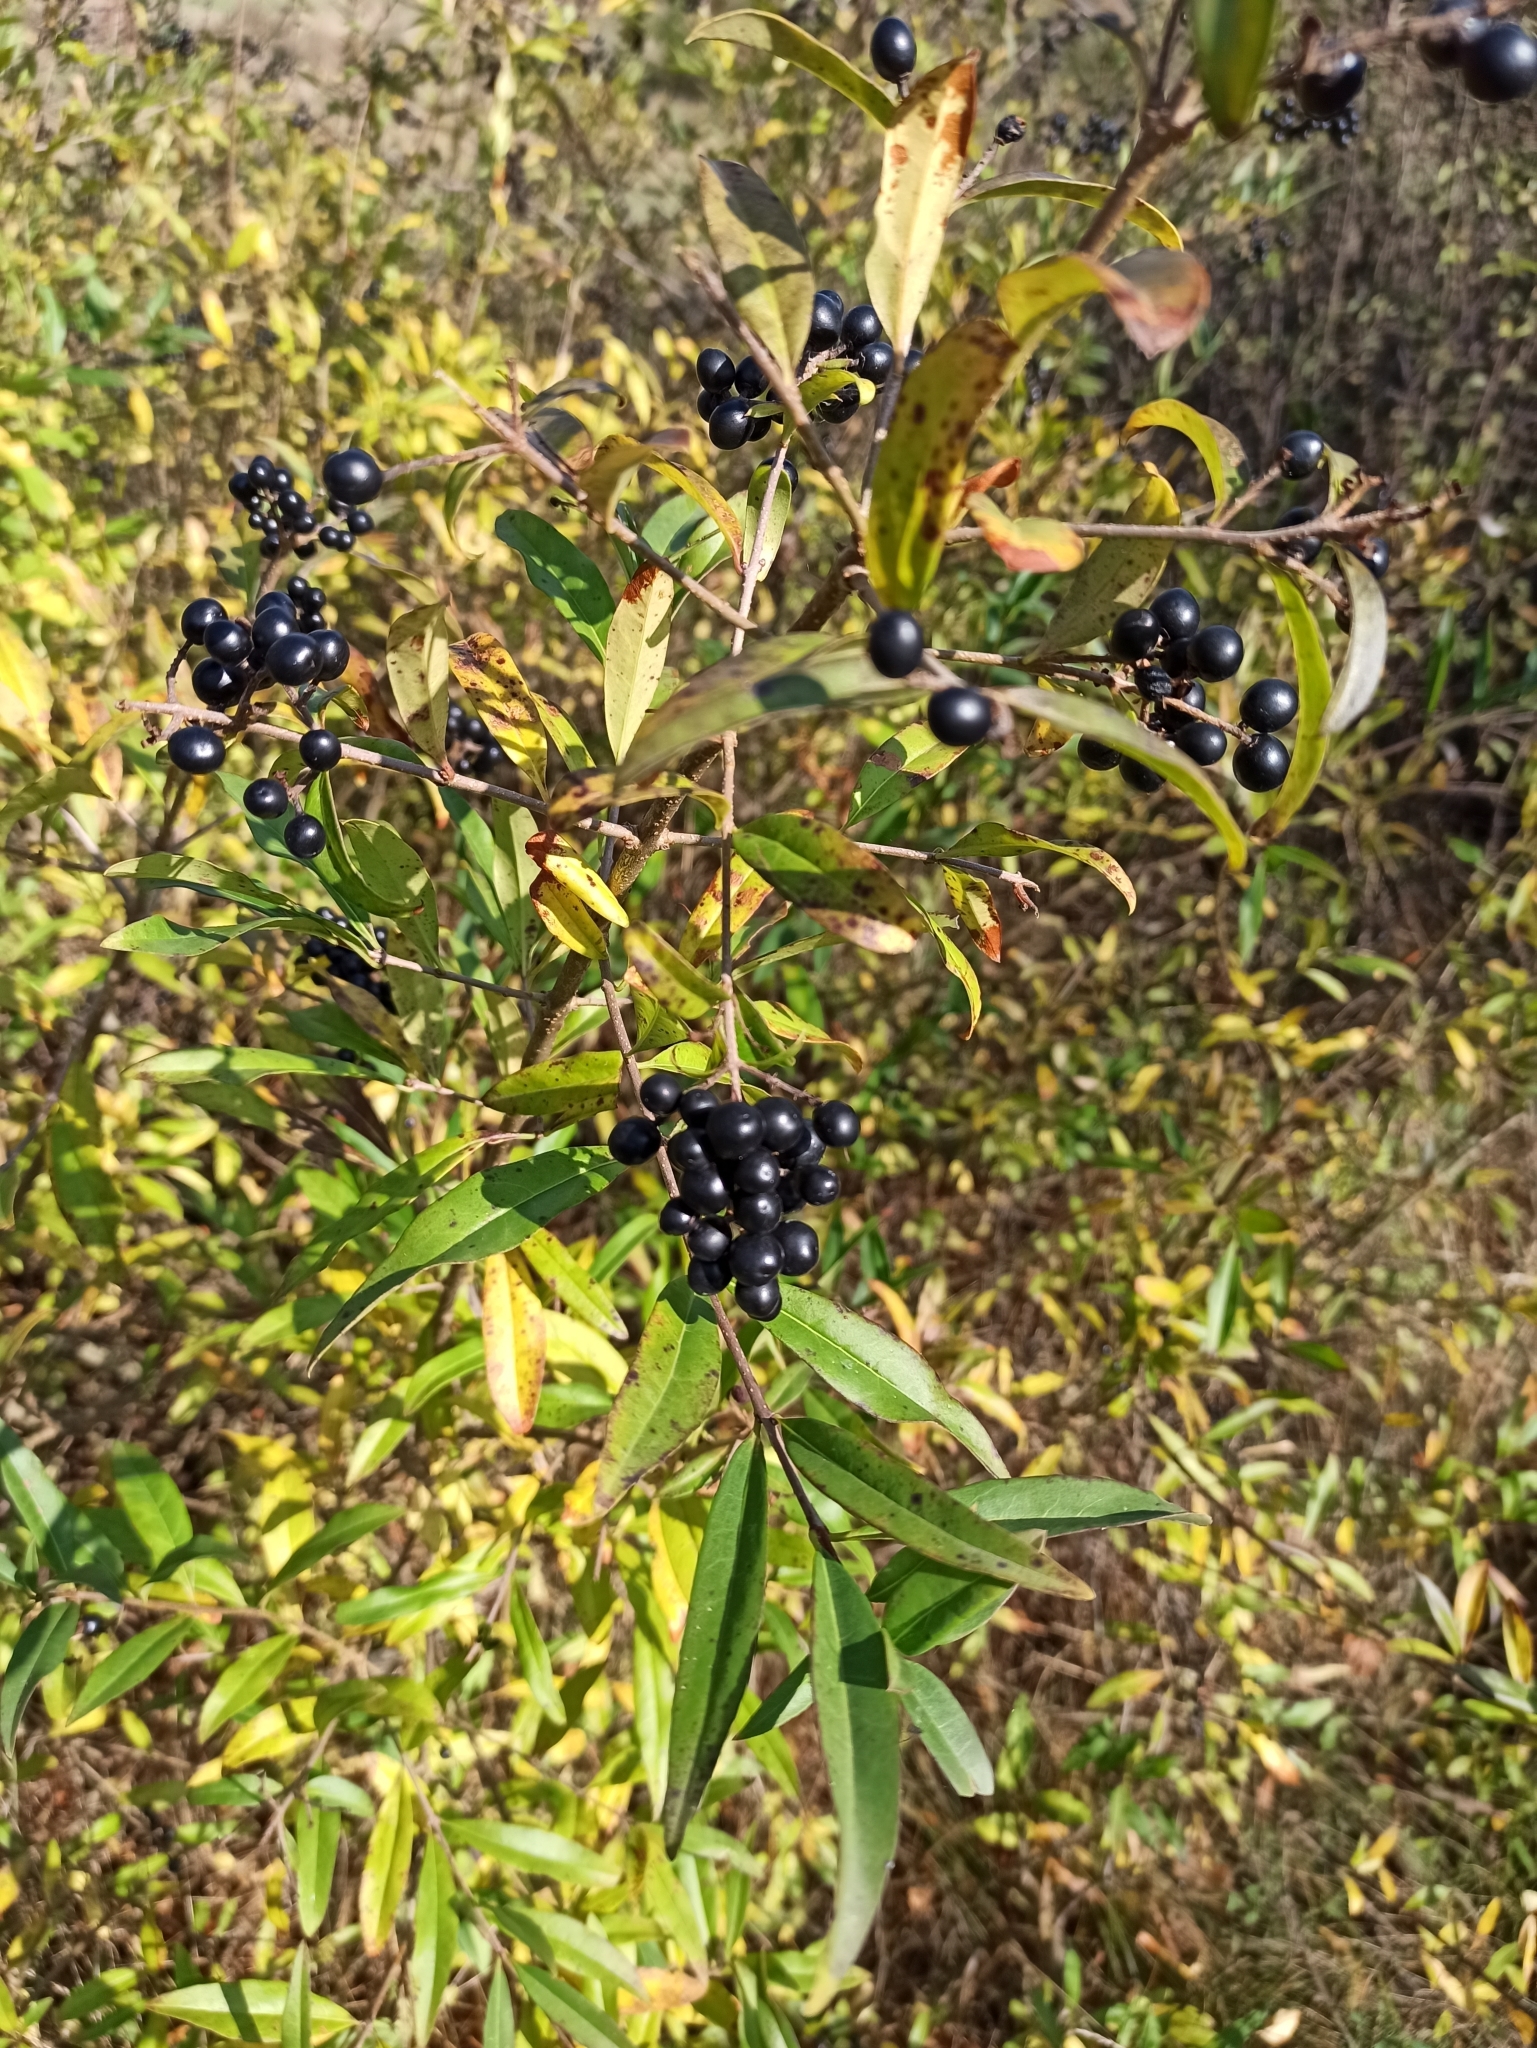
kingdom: Plantae
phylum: Tracheophyta
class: Magnoliopsida
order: Lamiales
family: Oleaceae
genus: Ligustrum
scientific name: Ligustrum vulgare
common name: Wild privet
